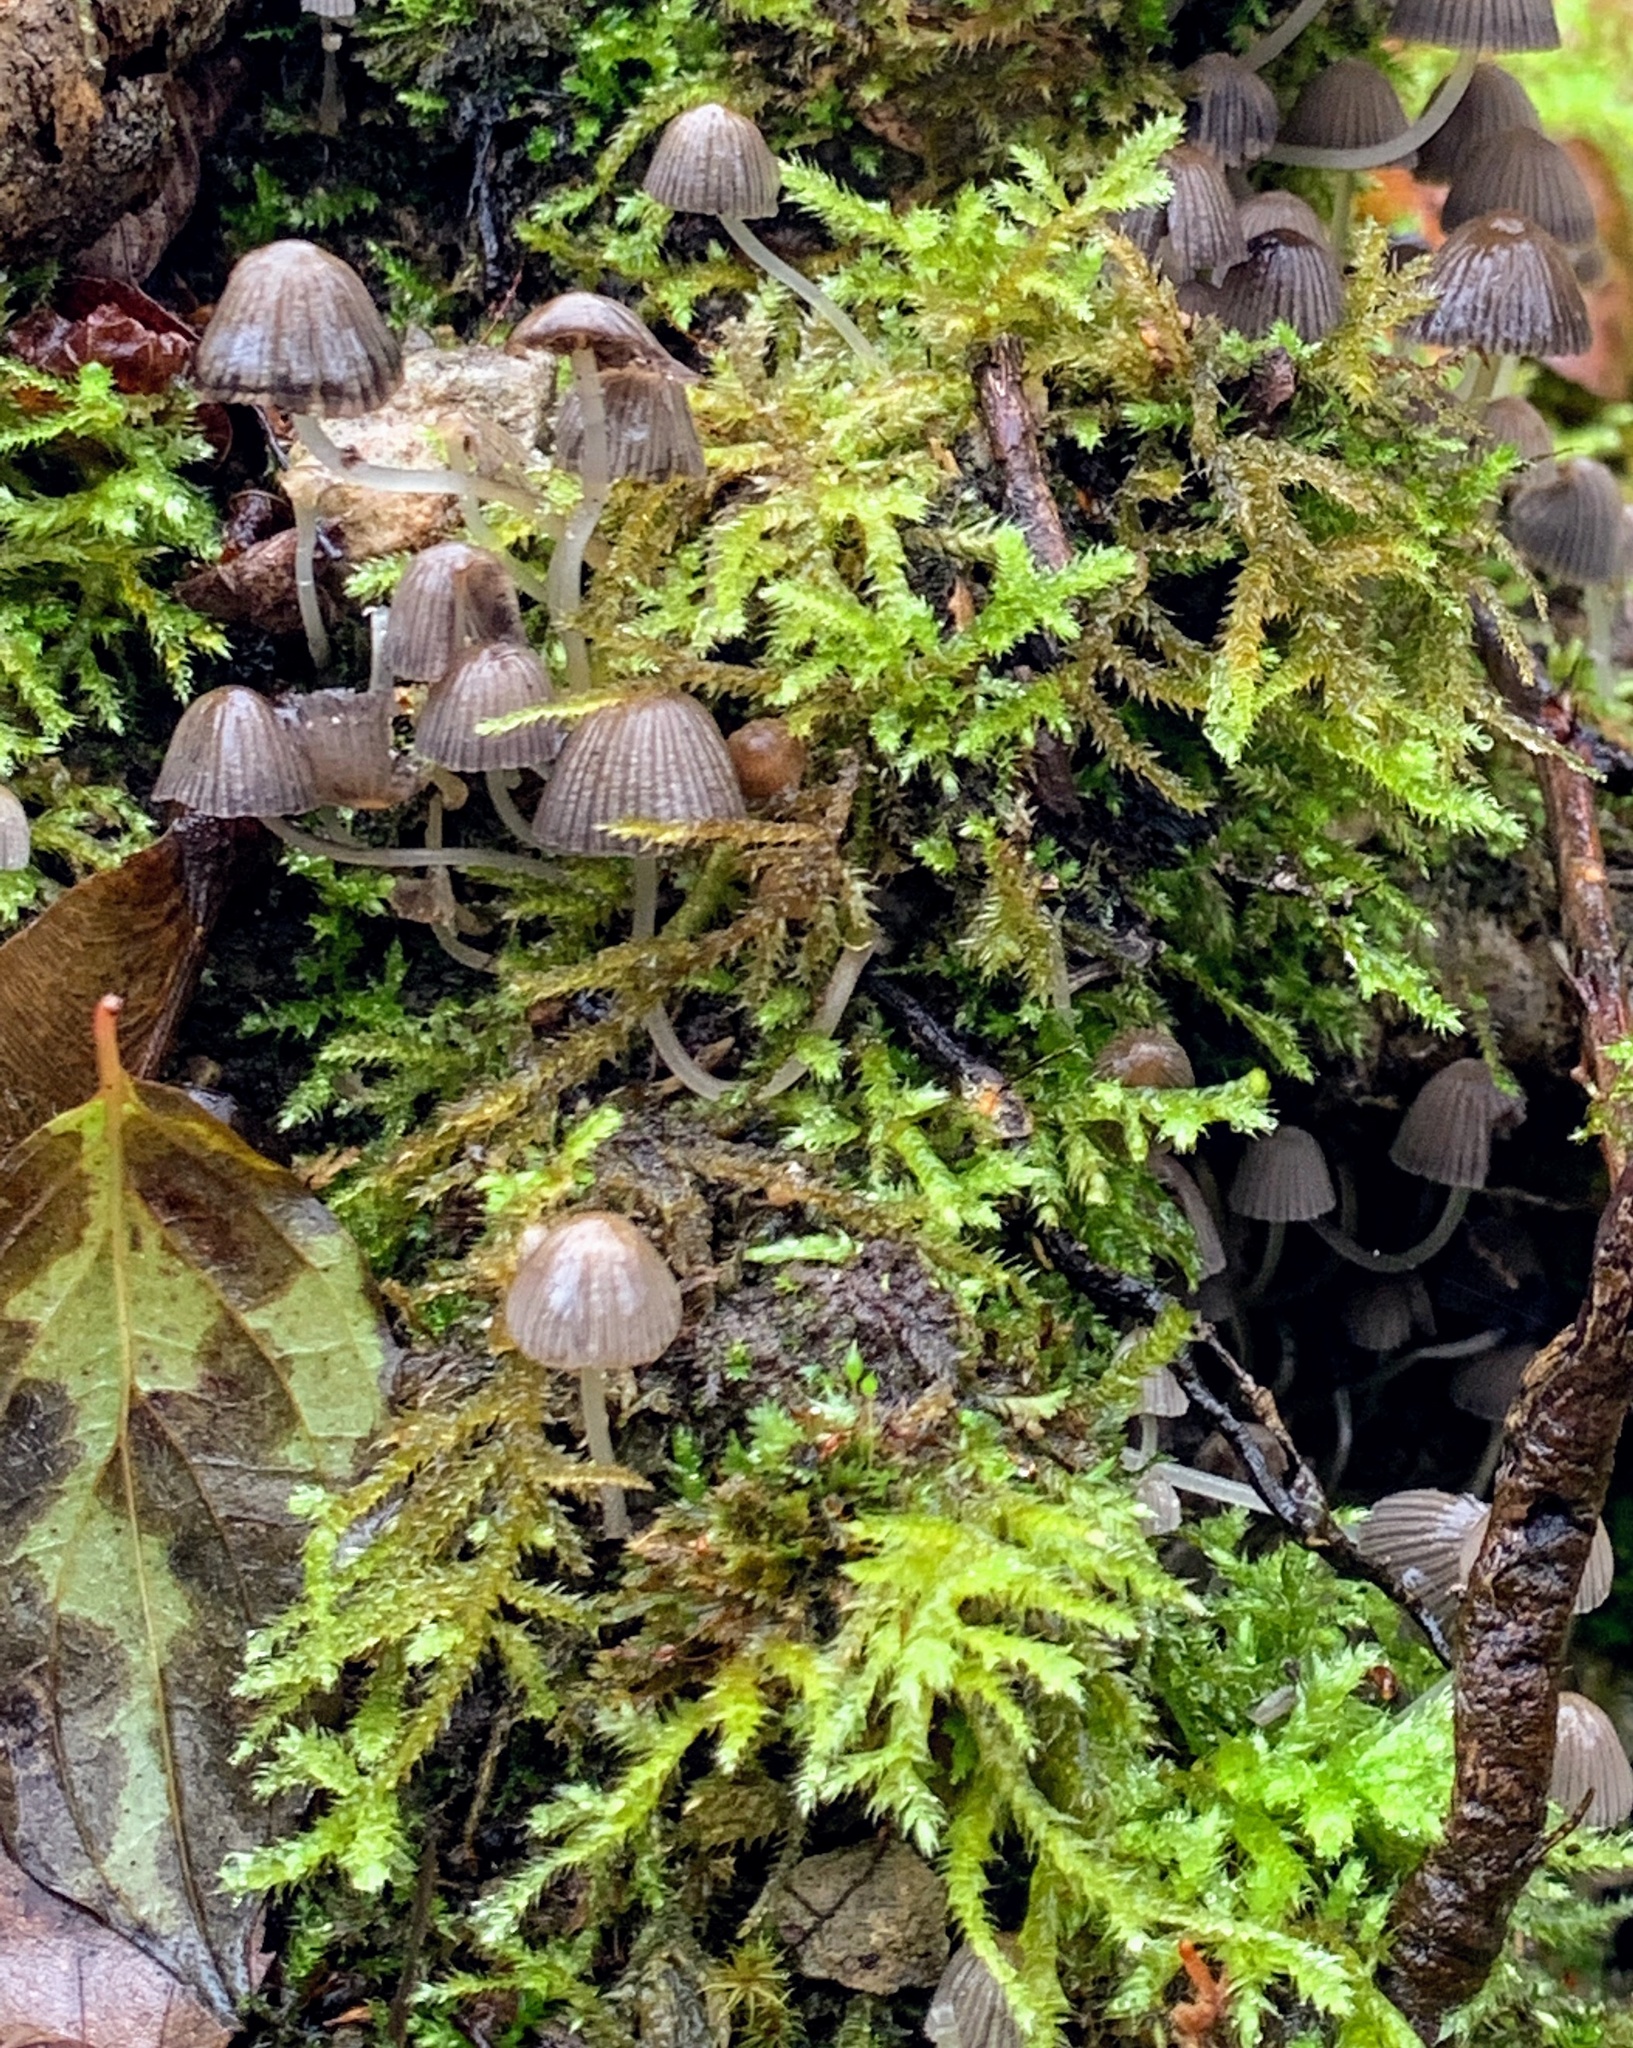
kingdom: Fungi
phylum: Basidiomycota
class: Agaricomycetes
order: Agaricales
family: Psathyrellaceae
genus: Coprinellus
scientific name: Coprinellus disseminatus
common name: Fairies' bonnets
